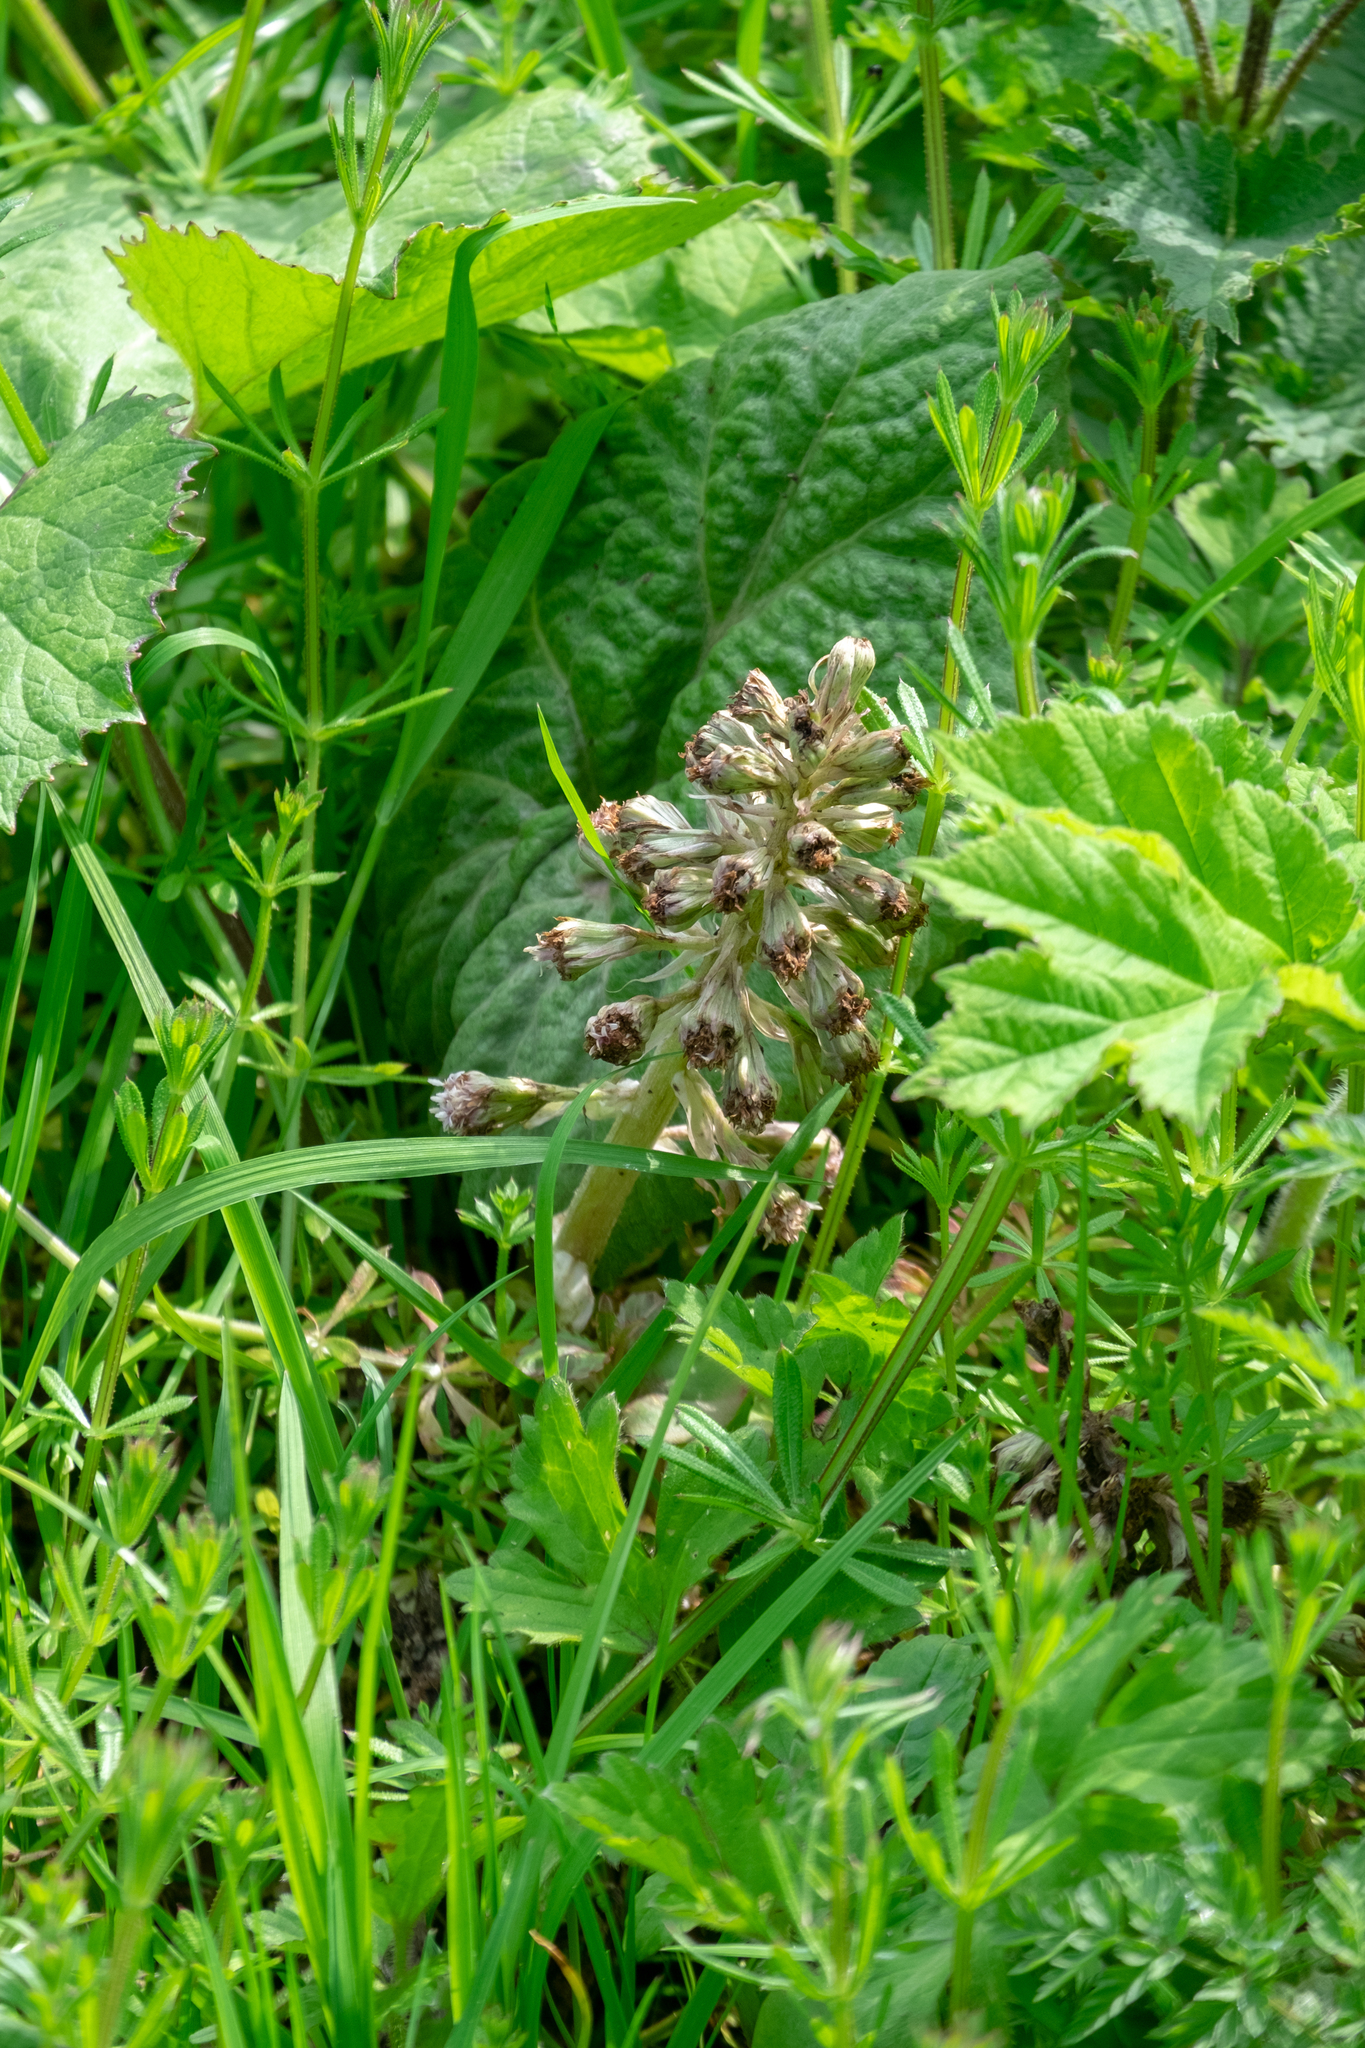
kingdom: Plantae
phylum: Tracheophyta
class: Magnoliopsida
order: Asterales
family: Asteraceae
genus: Petasites
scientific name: Petasites hybridus
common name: Butterbur
